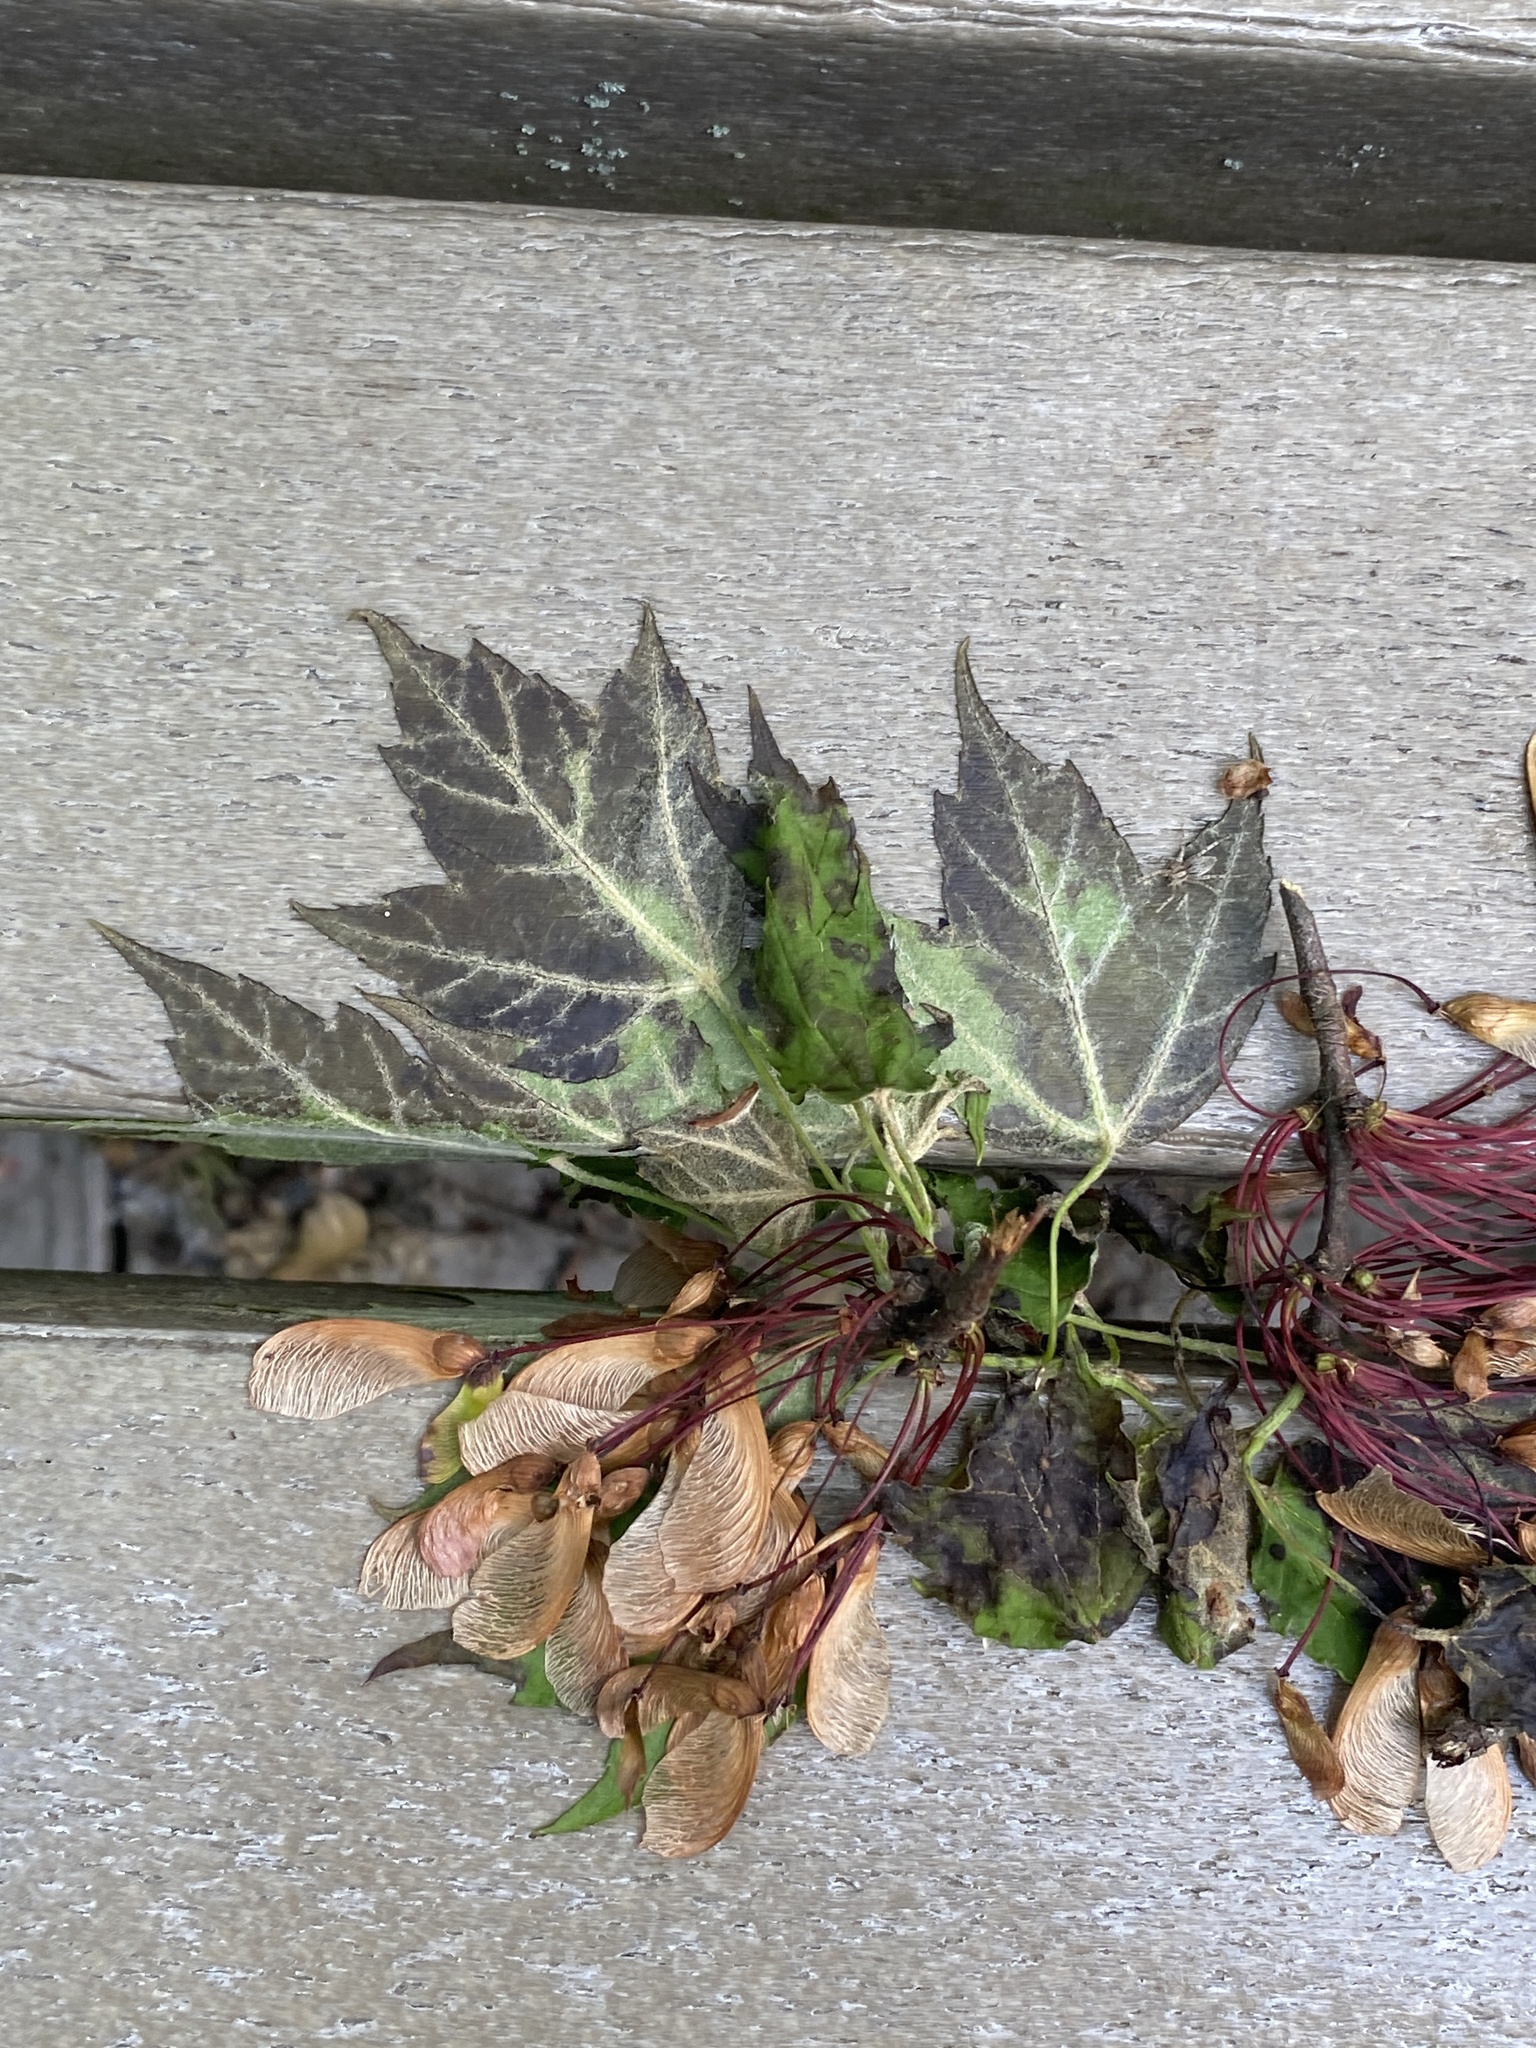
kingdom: Plantae
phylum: Tracheophyta
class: Magnoliopsida
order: Sapindales
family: Sapindaceae
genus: Acer
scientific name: Acer rubrum
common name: Red maple
